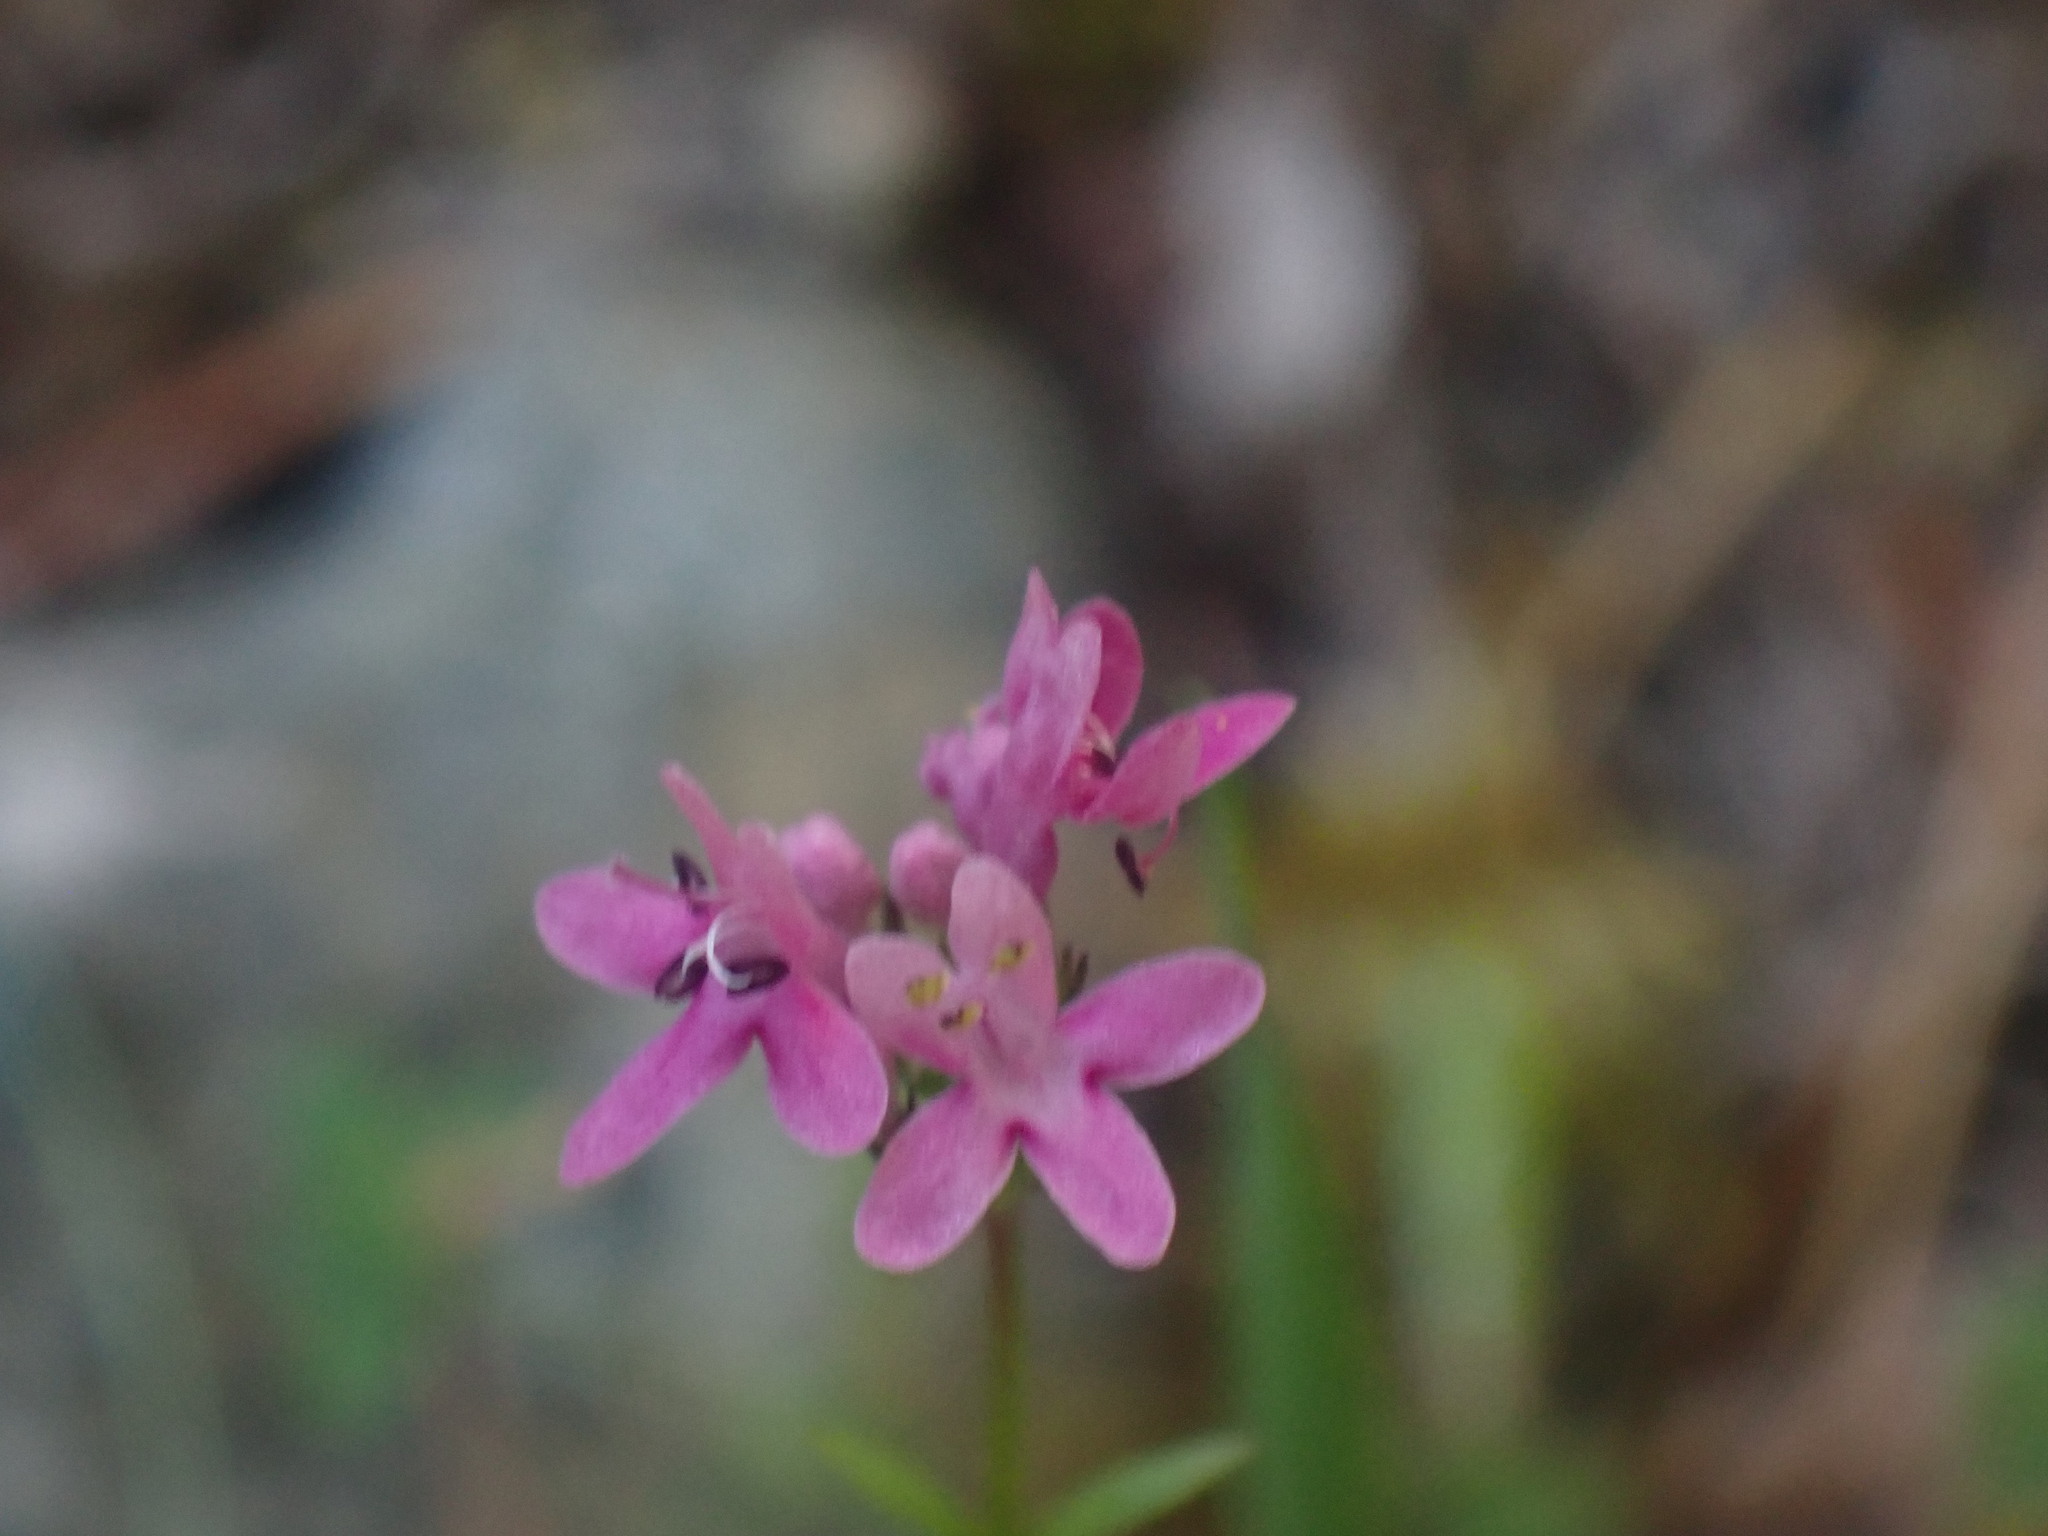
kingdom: Plantae
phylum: Tracheophyta
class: Magnoliopsida
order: Dipsacales
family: Caprifoliaceae
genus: Plectritis
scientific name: Plectritis congesta
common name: Pink plectritis
